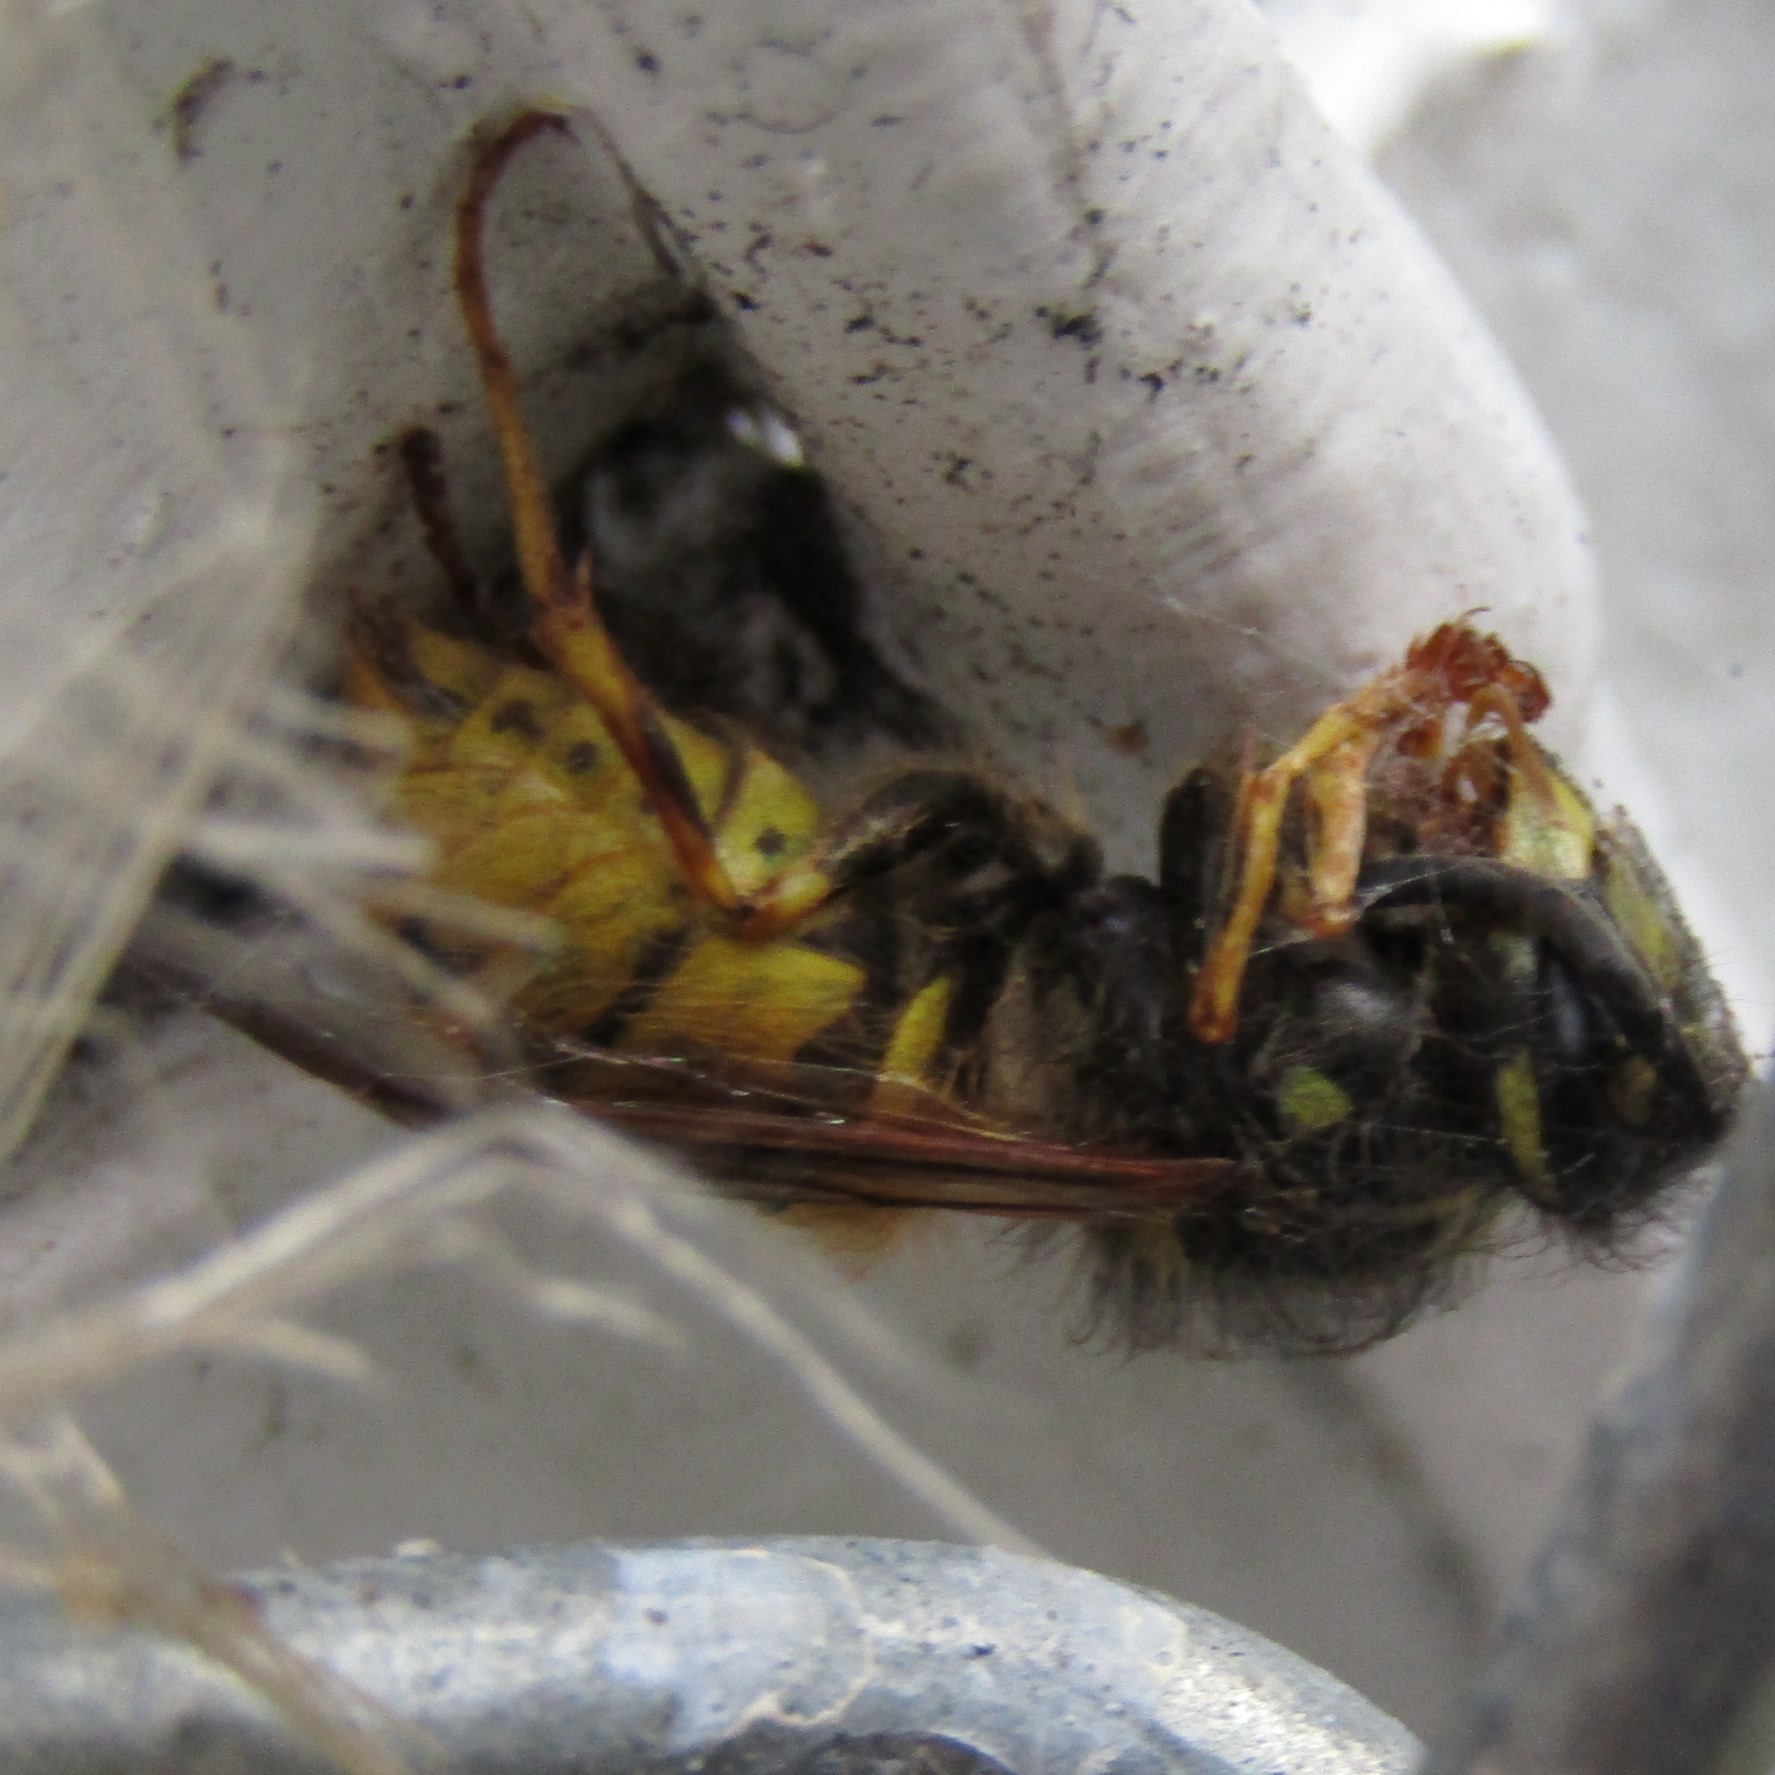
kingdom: Animalia
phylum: Arthropoda
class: Insecta
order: Hymenoptera
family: Vespidae
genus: Vespula
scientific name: Vespula vulgaris
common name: Common wasp
